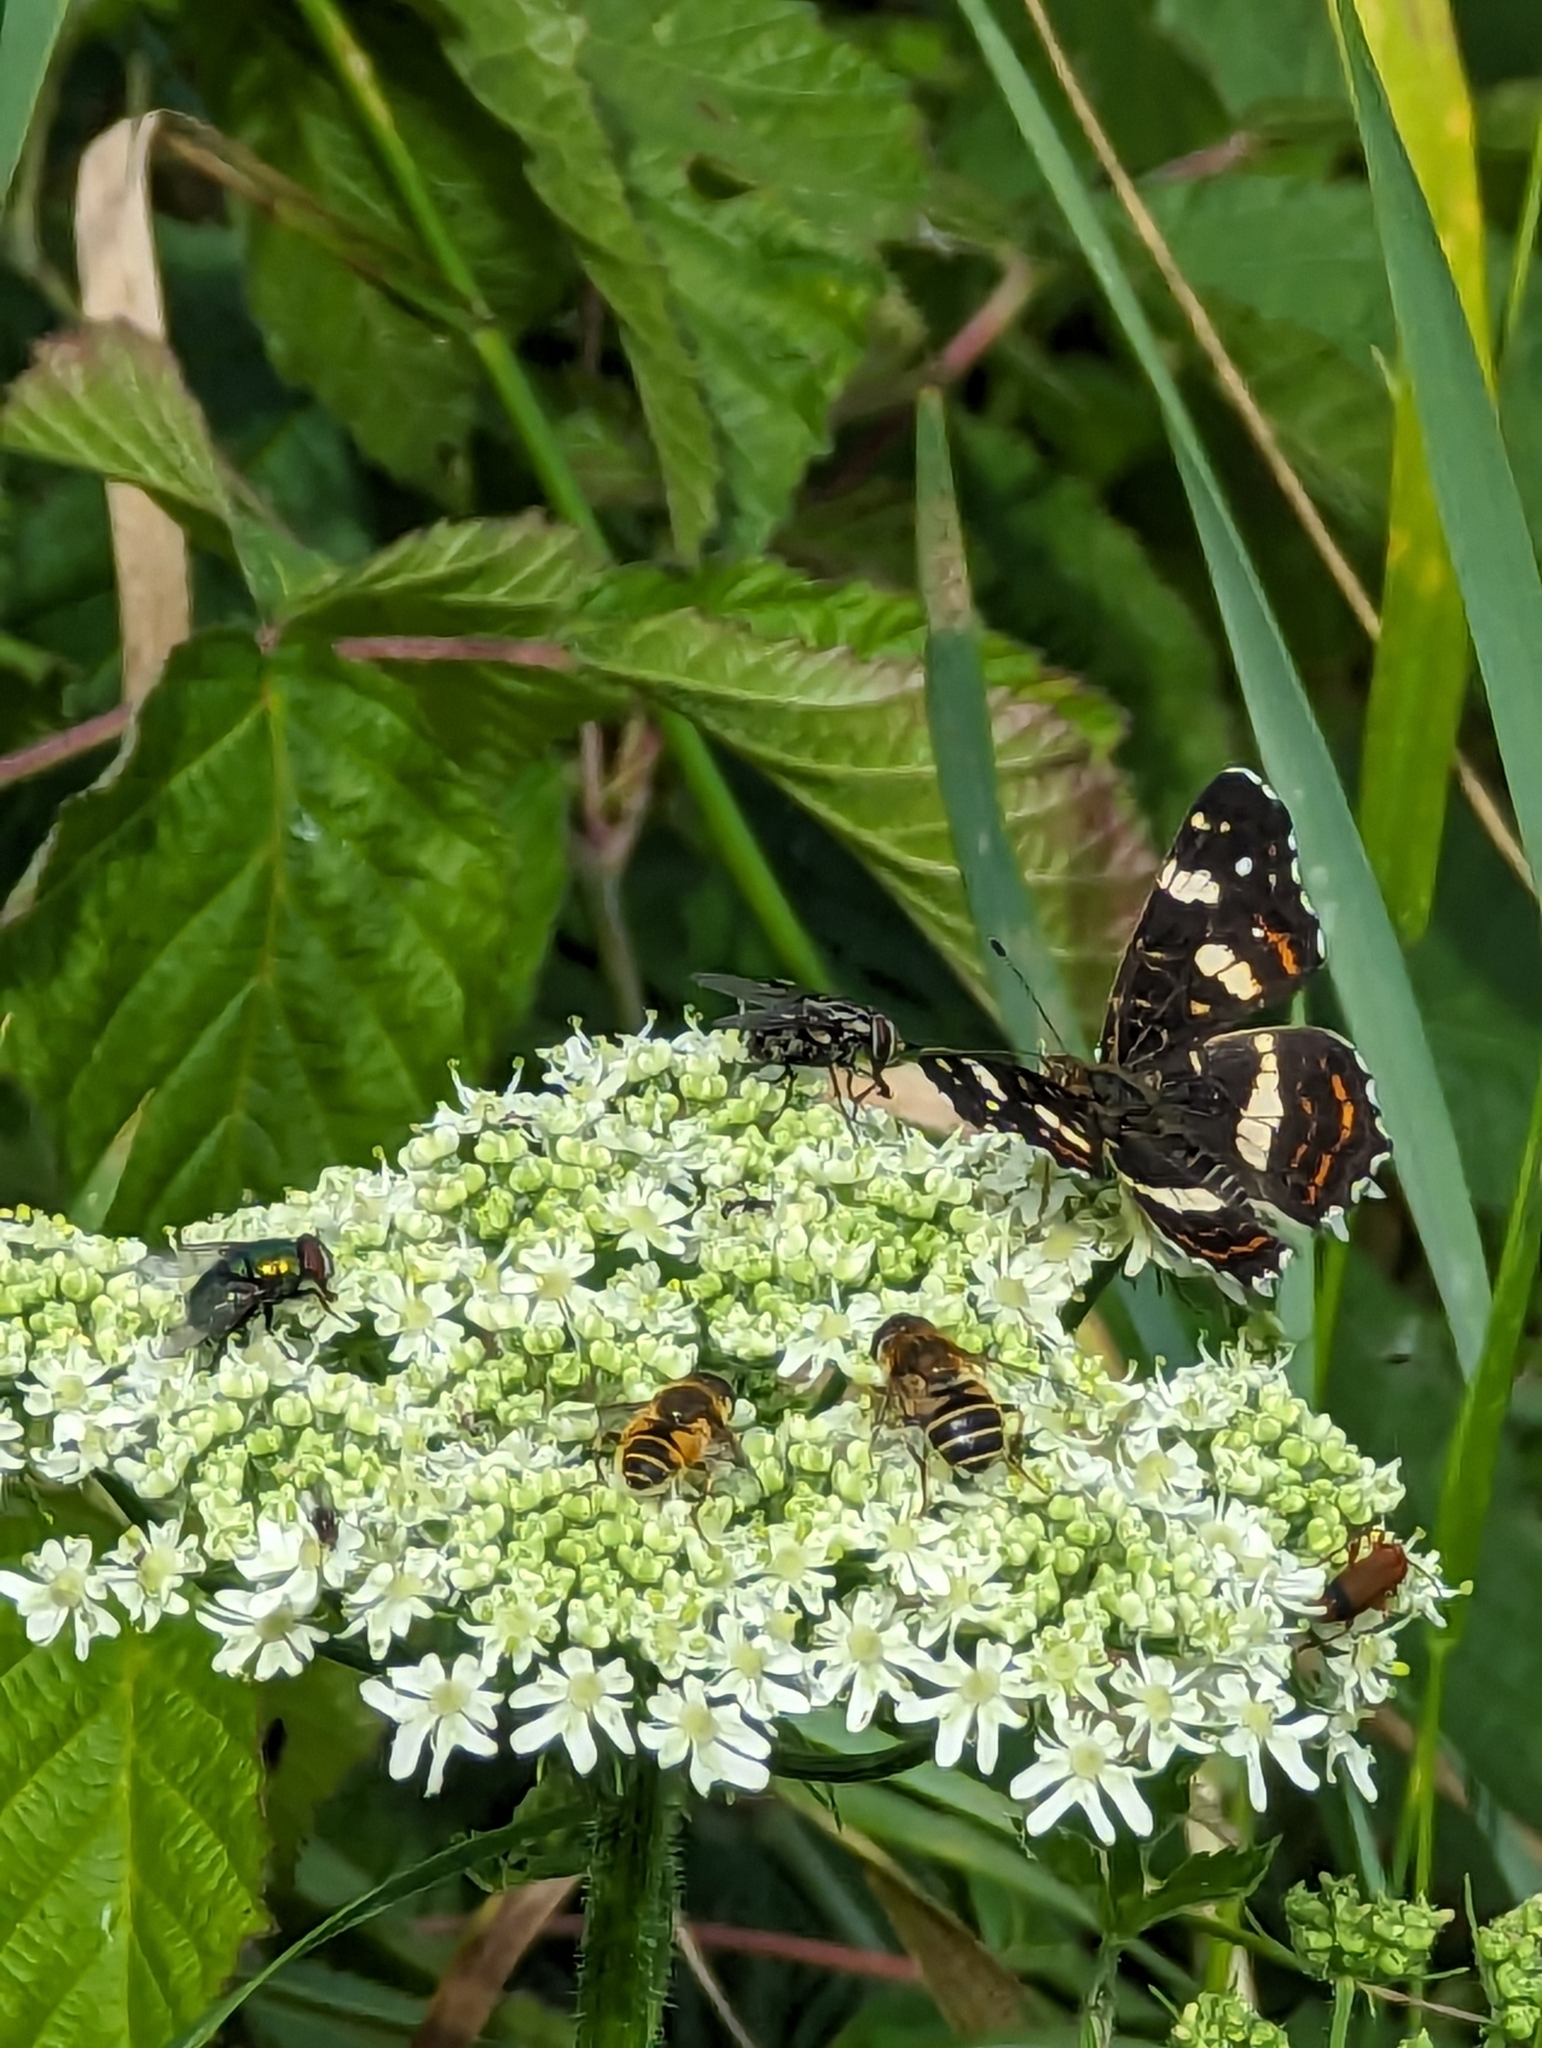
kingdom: Animalia
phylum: Arthropoda
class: Insecta
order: Lepidoptera
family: Nymphalidae
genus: Araschnia
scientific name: Araschnia levana
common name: Map butterfly
